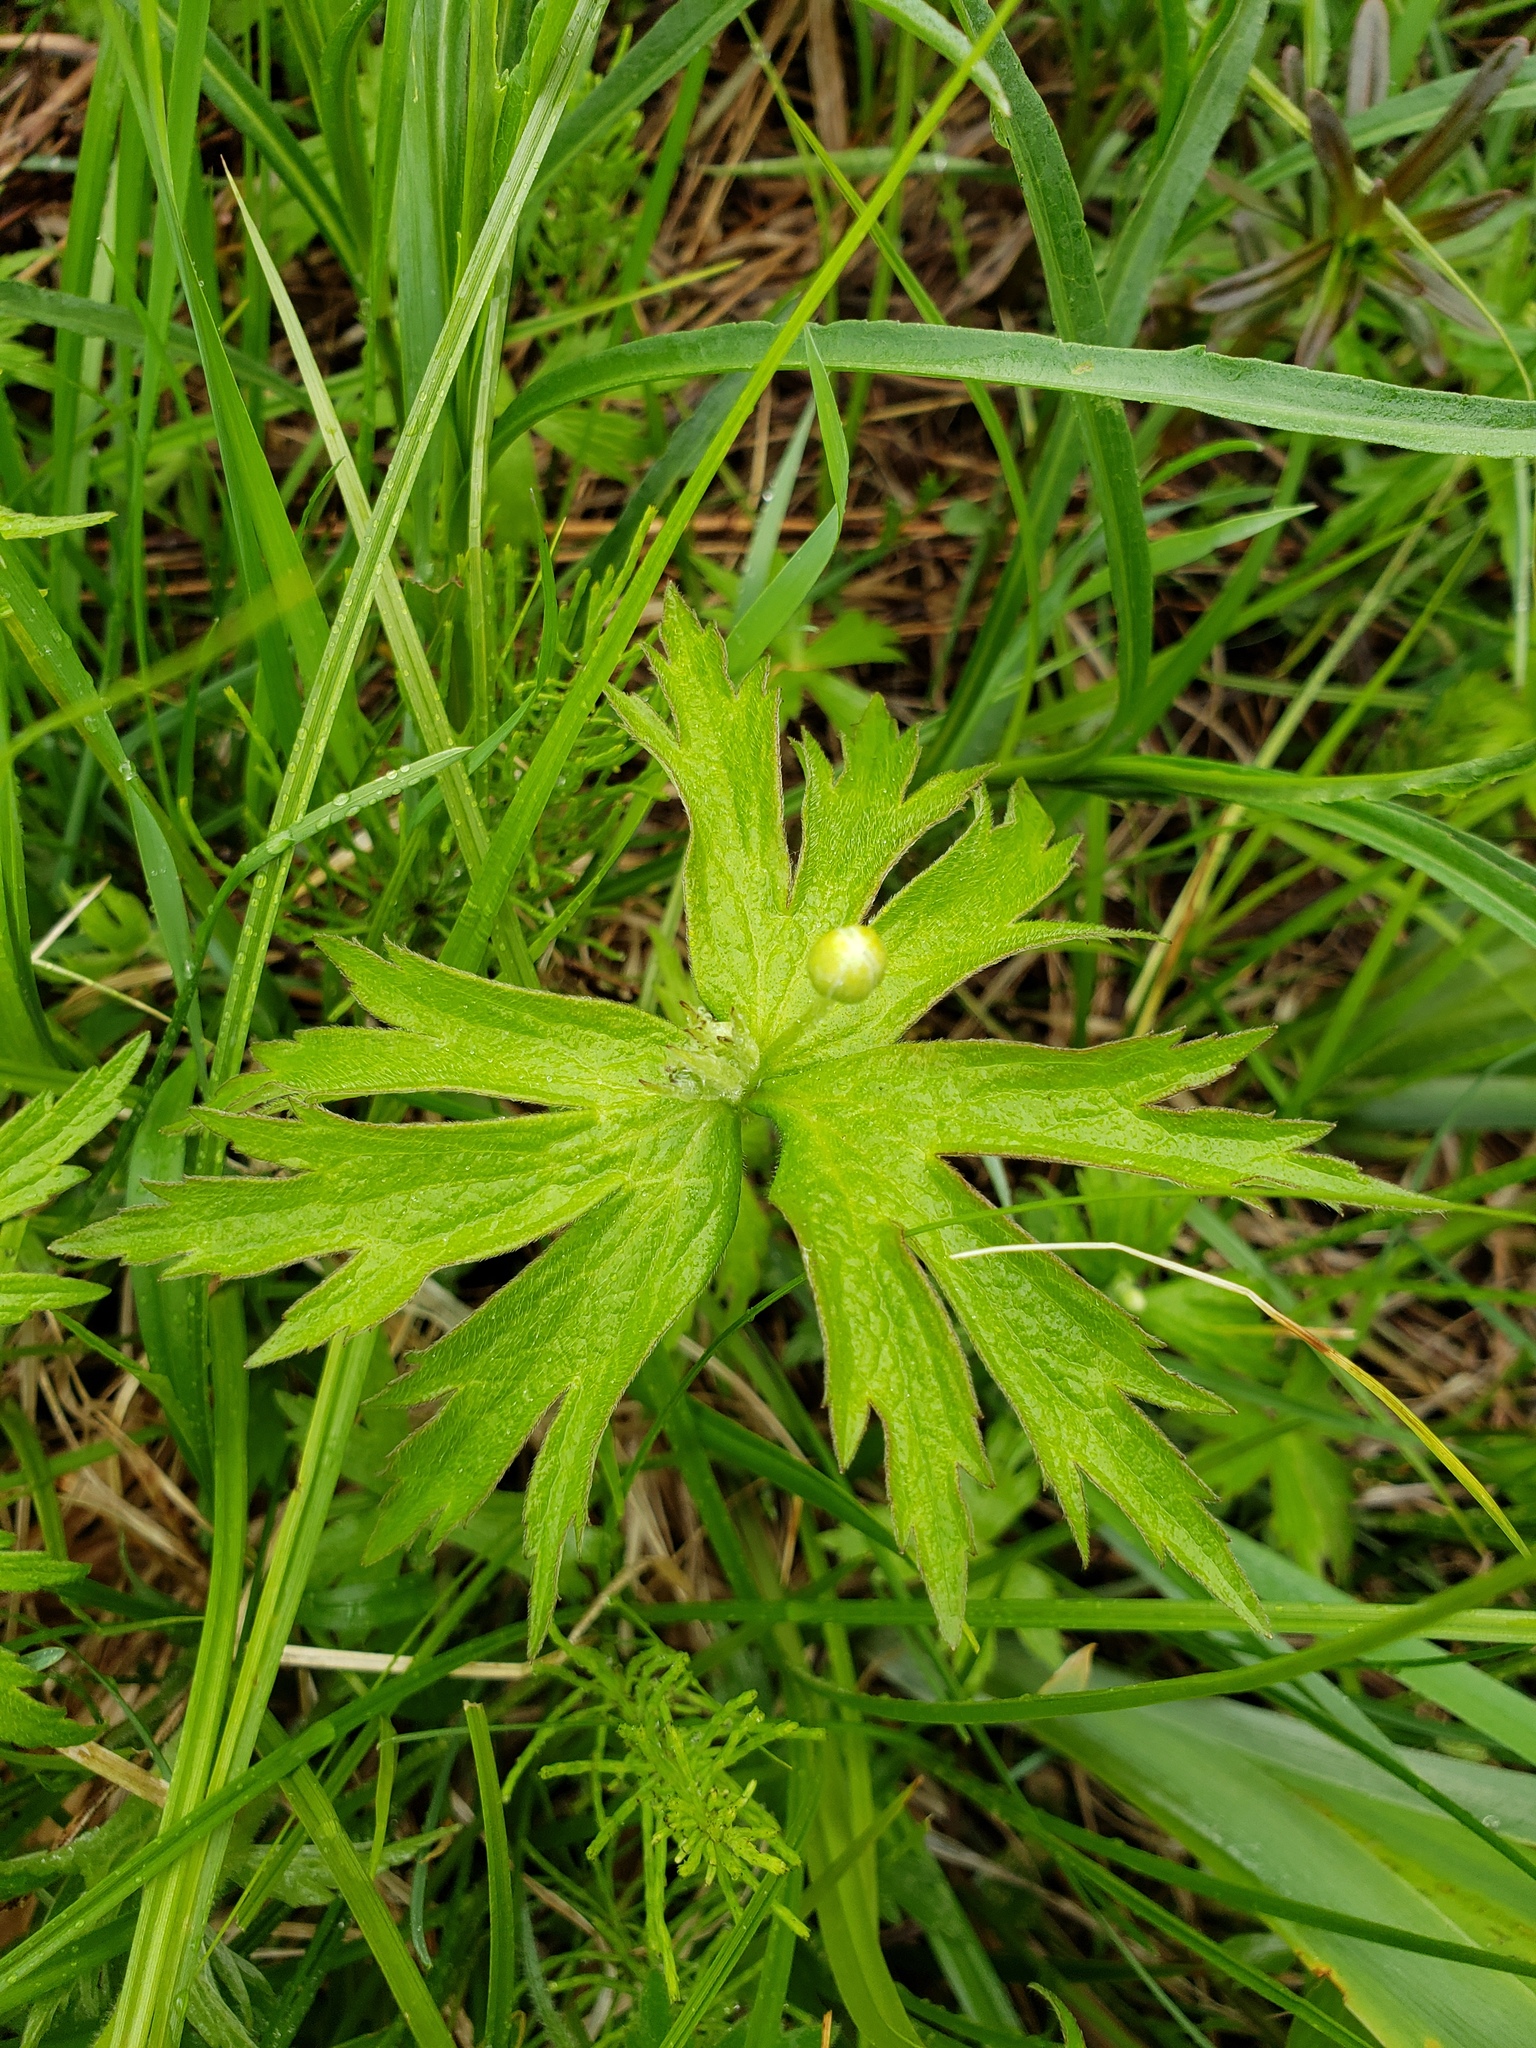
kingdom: Plantae
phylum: Tracheophyta
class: Magnoliopsida
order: Ranunculales
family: Ranunculaceae
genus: Anemonastrum
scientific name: Anemonastrum canadense
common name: Canada anemone
